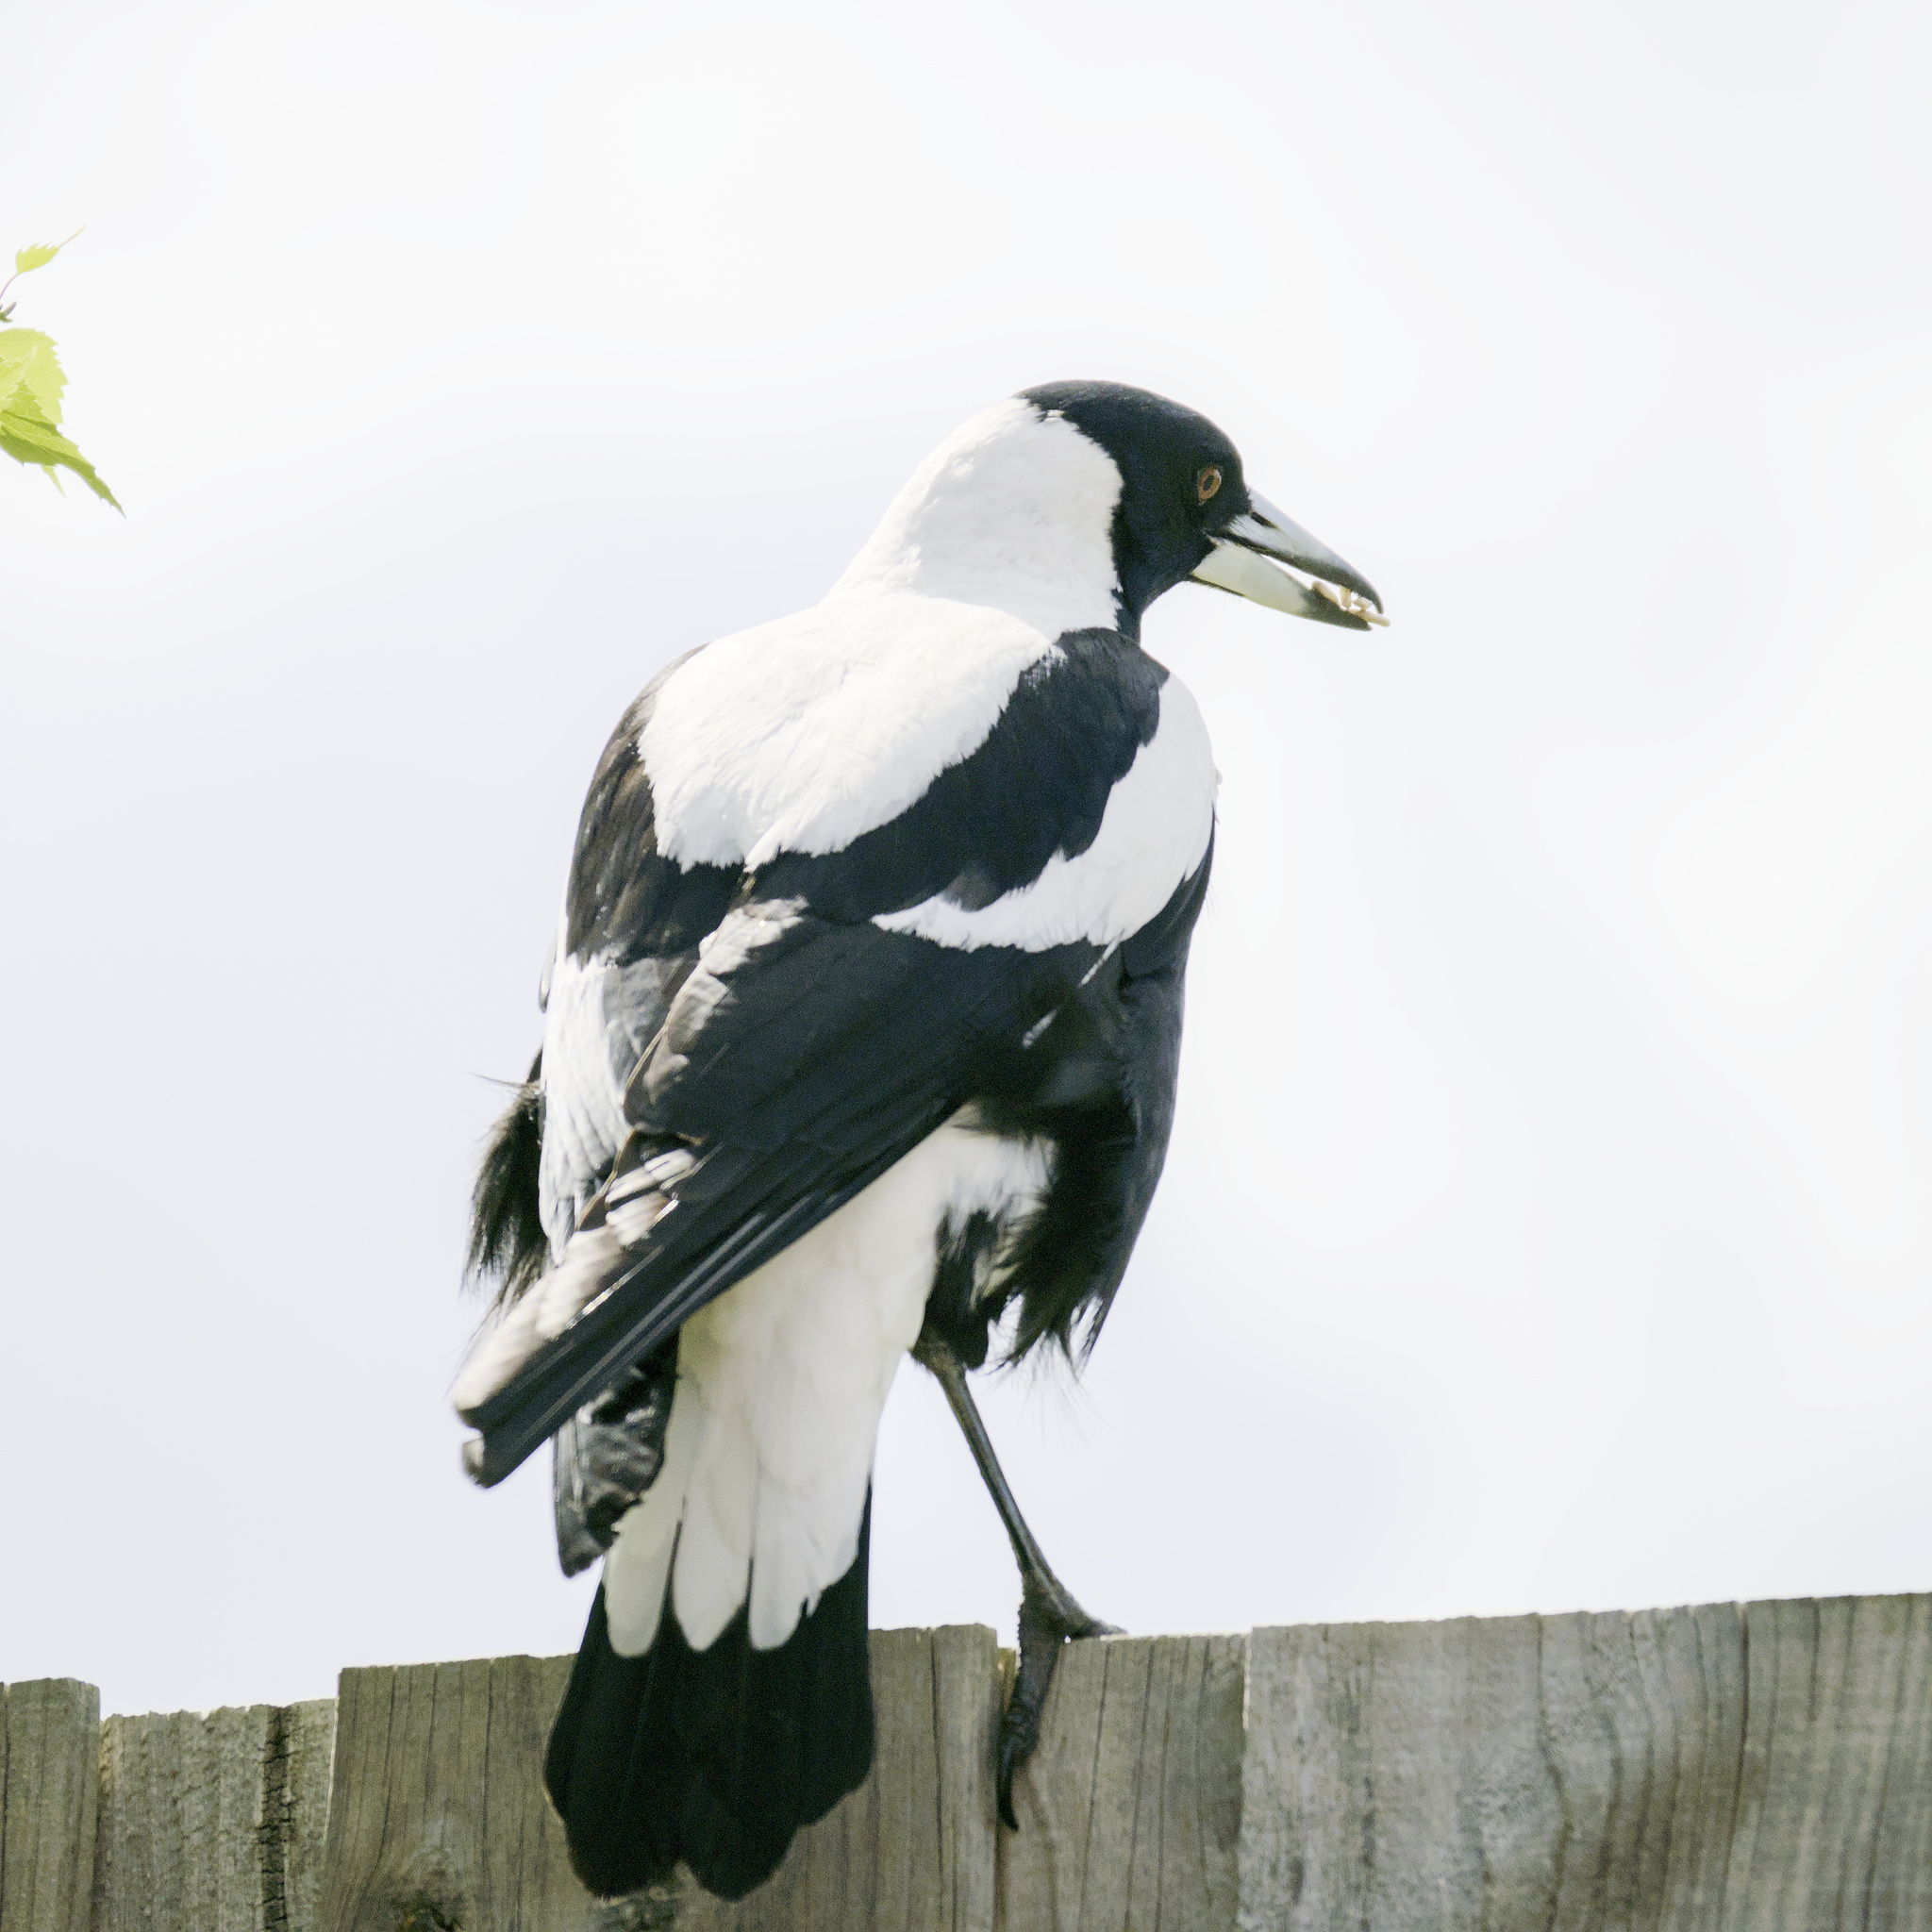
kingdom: Animalia
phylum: Chordata
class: Aves
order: Passeriformes
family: Cracticidae
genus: Gymnorhina
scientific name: Gymnorhina tibicen
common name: Australian magpie
